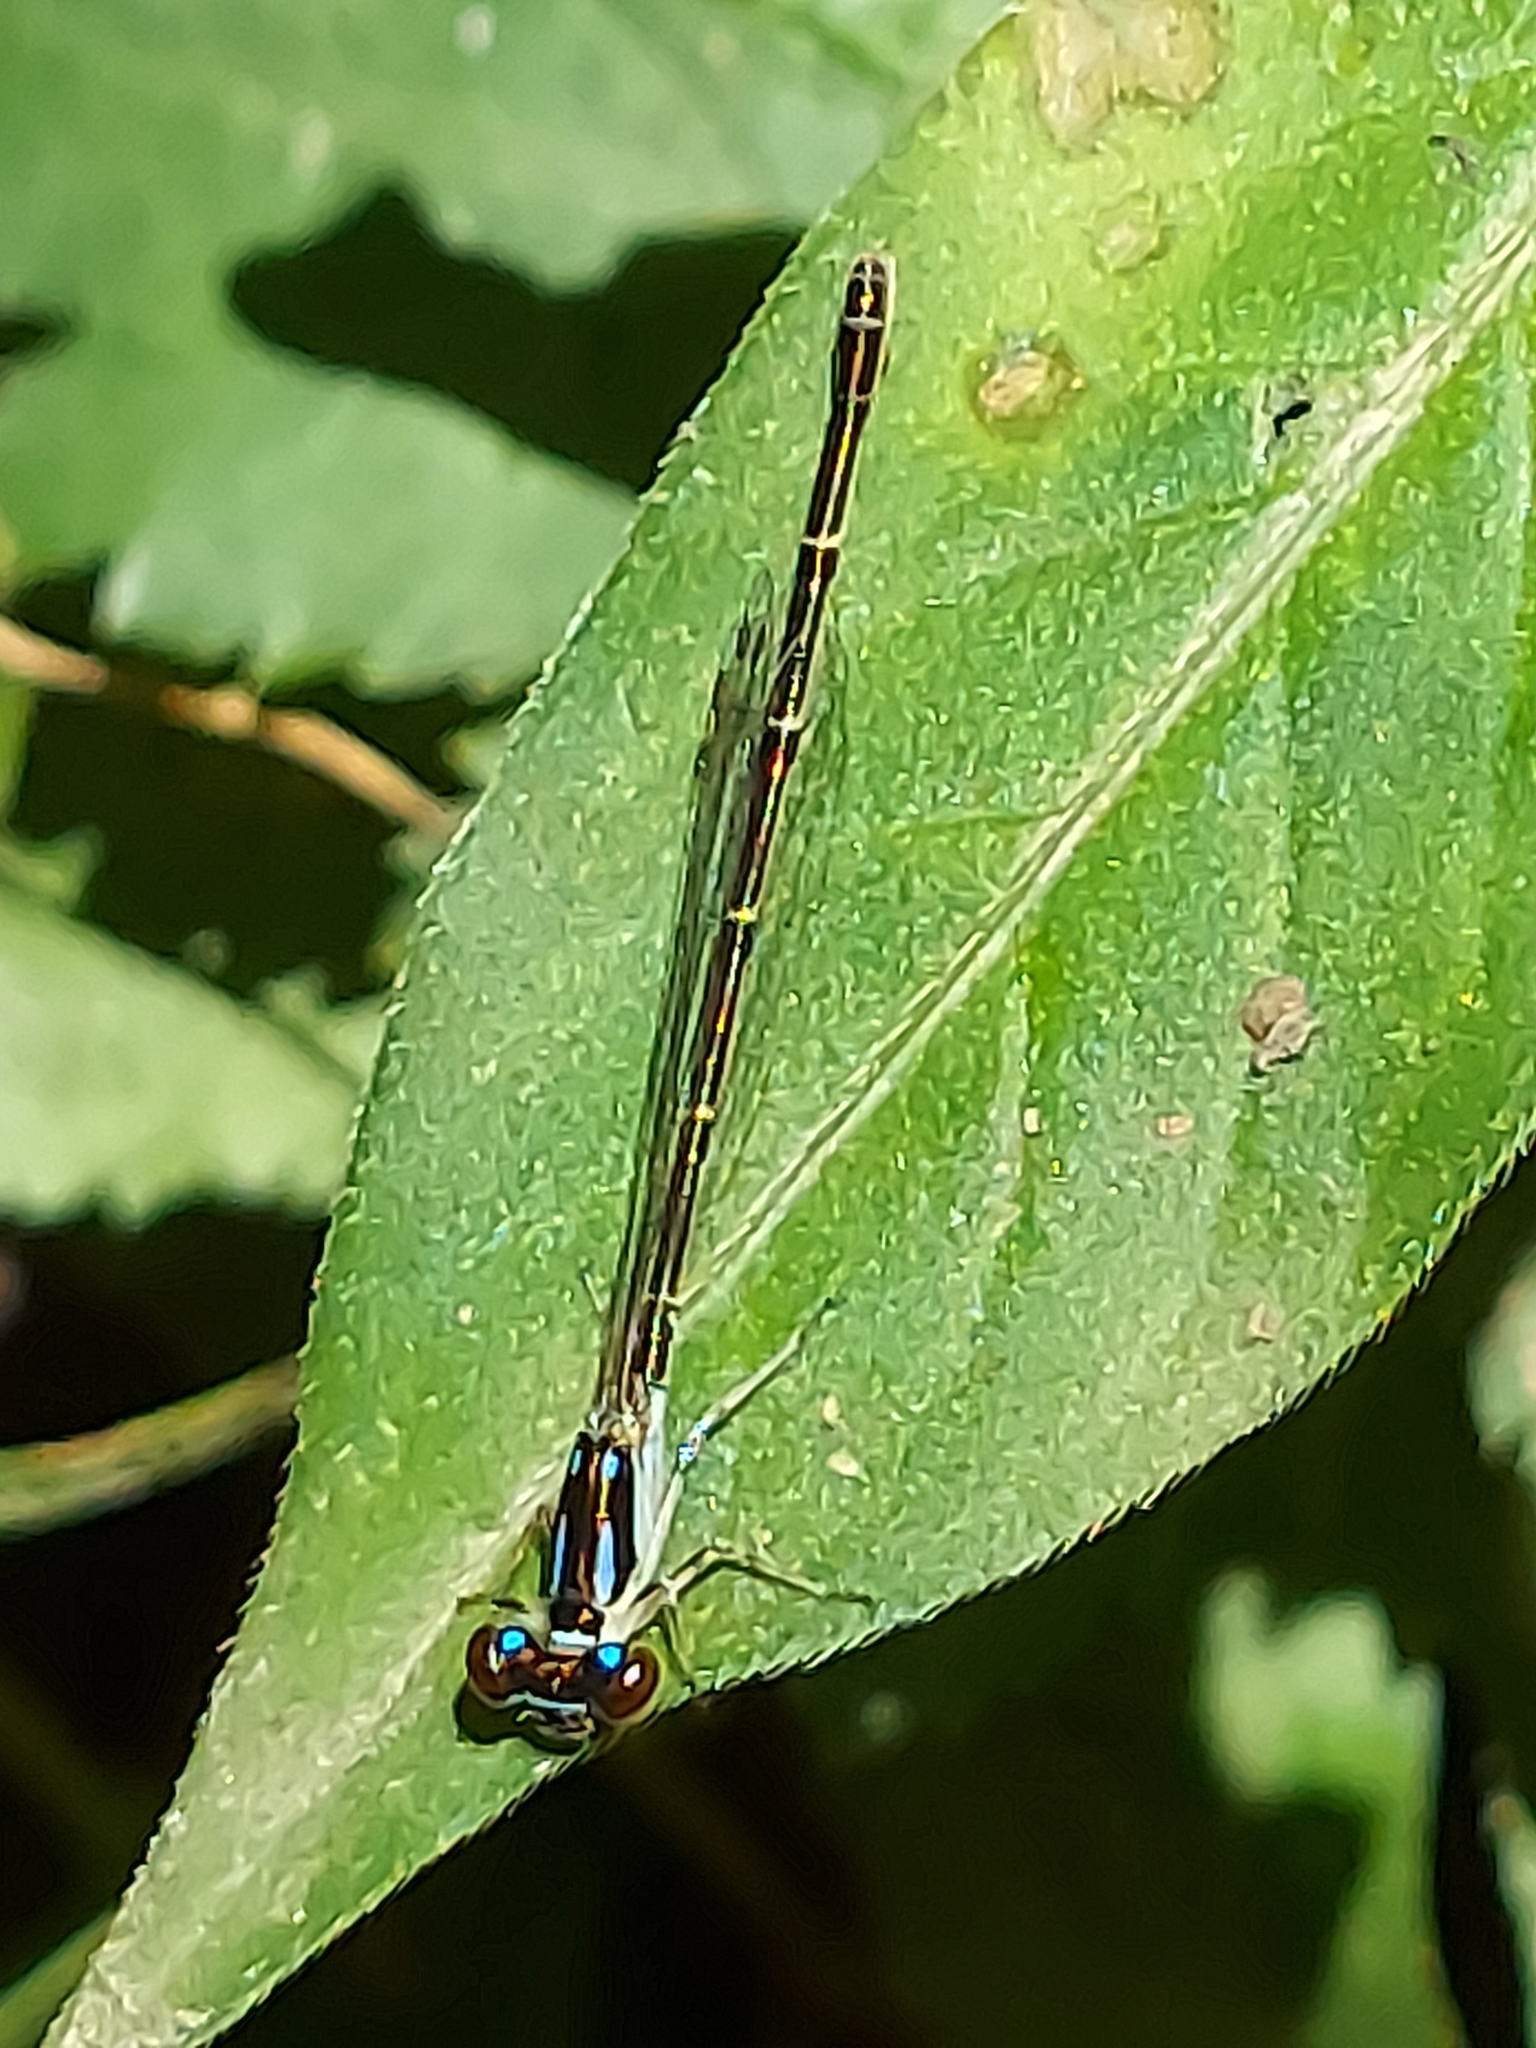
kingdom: Animalia
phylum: Arthropoda
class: Insecta
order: Odonata
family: Coenagrionidae
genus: Ischnura
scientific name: Ischnura posita
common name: Fragile forktail
